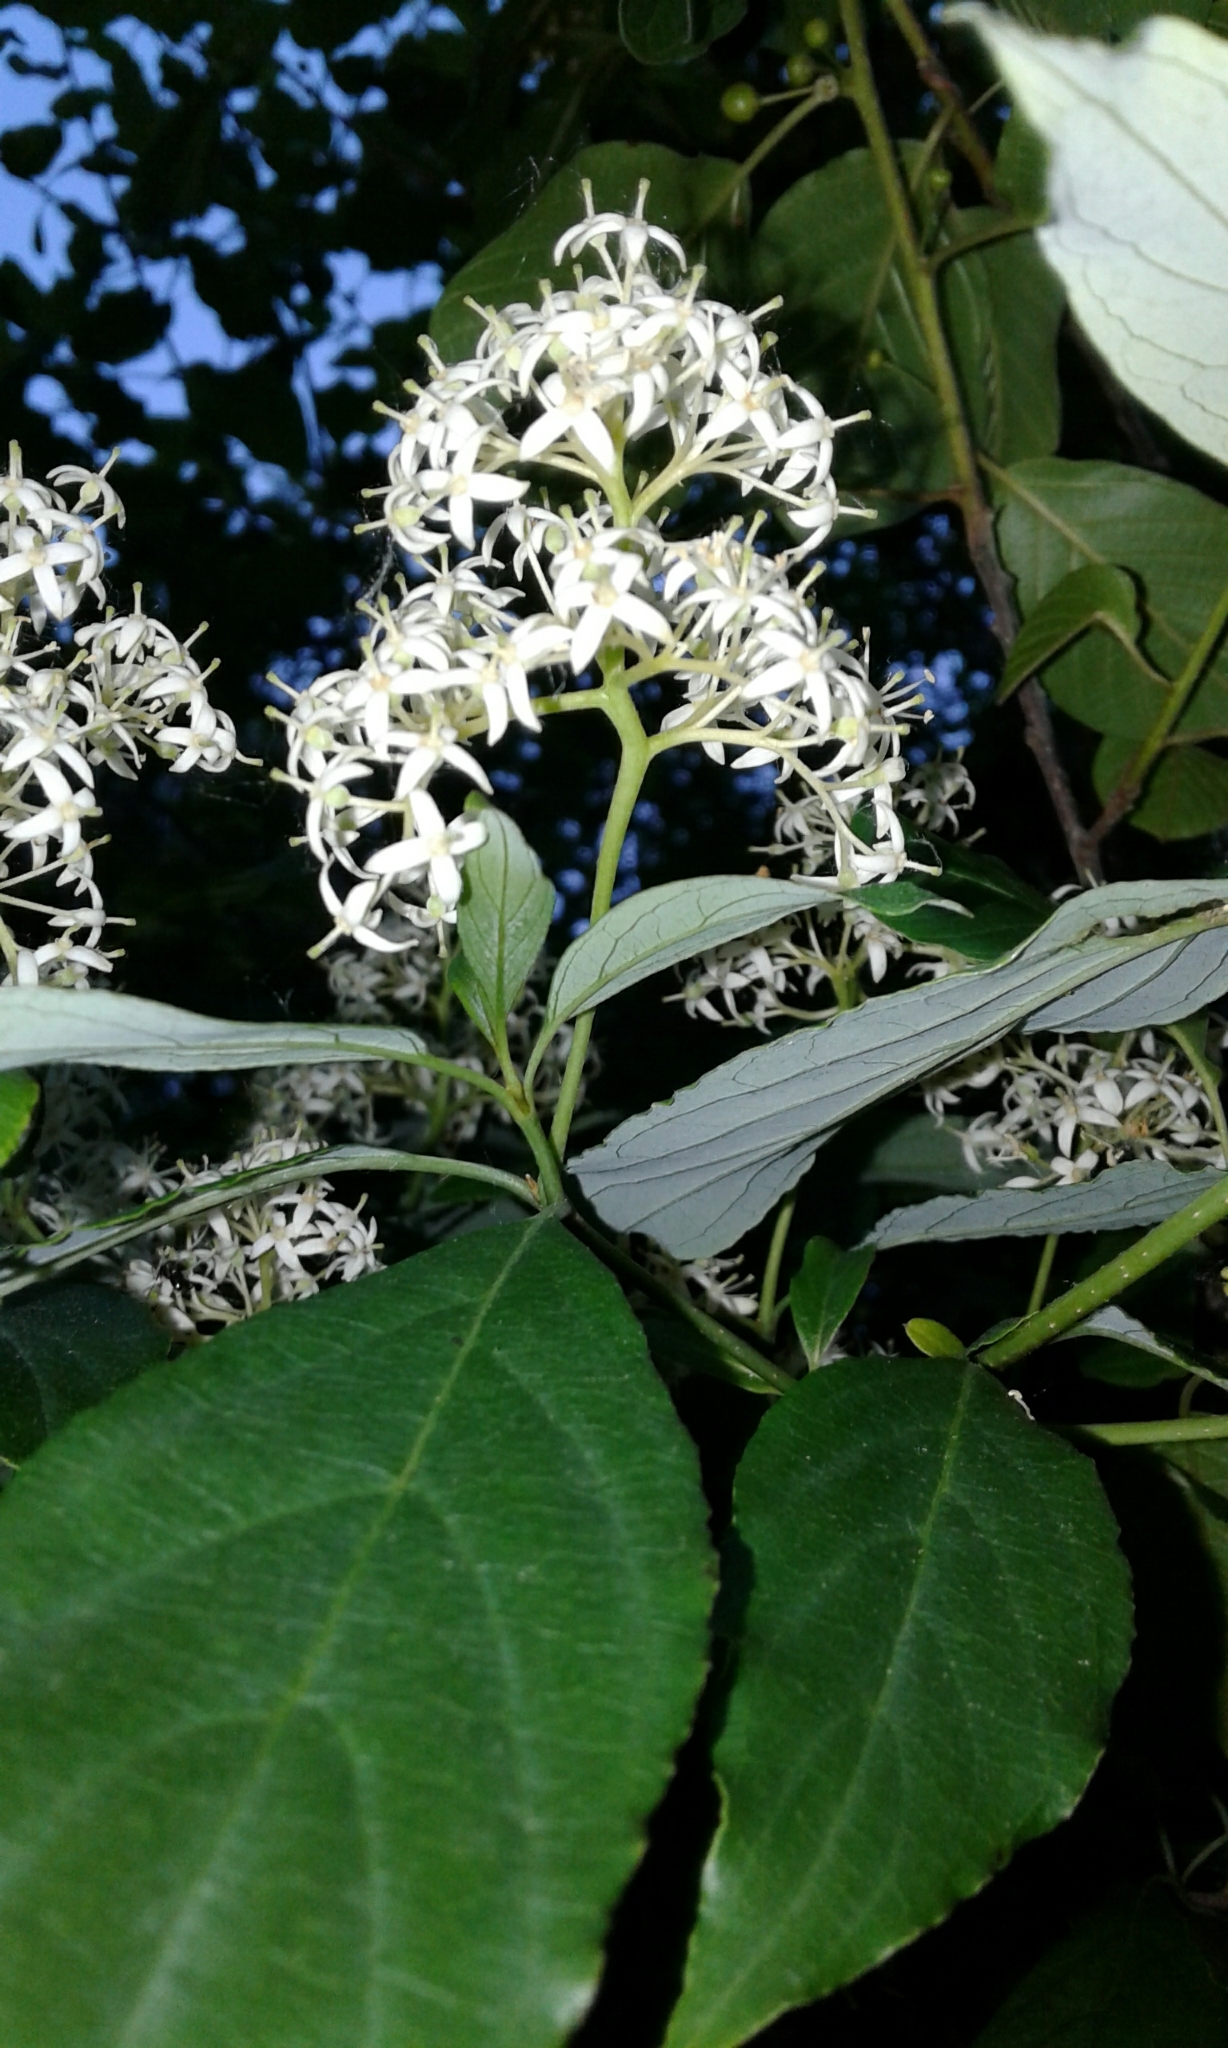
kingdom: Plantae
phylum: Tracheophyta
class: Magnoliopsida
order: Cornales
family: Cornaceae
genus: Cornus
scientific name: Cornus racemosa
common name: Panicled dogwood
